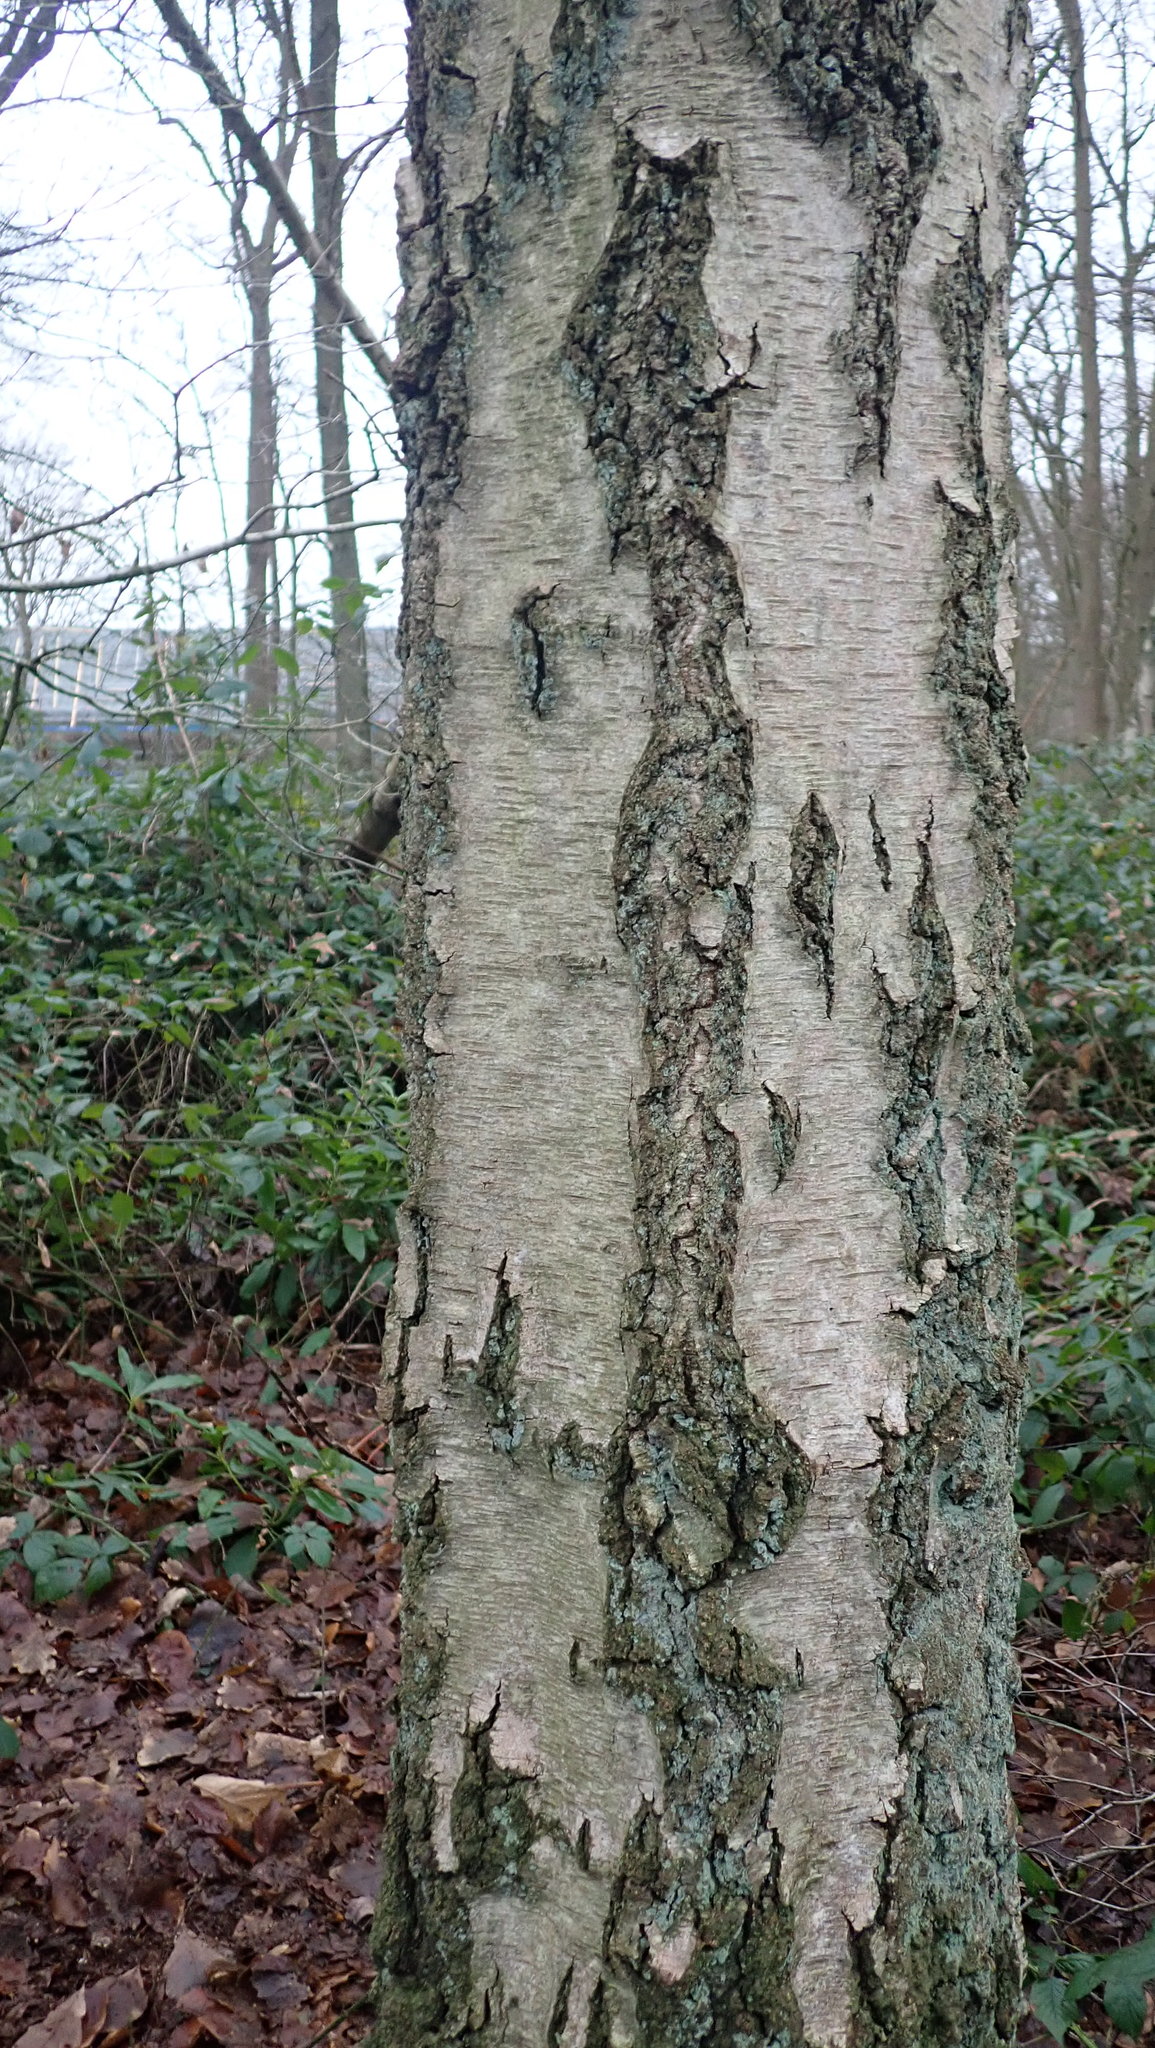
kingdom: Plantae
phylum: Tracheophyta
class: Magnoliopsida
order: Fagales
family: Betulaceae
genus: Betula
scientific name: Betula pendula
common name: Silver birch
